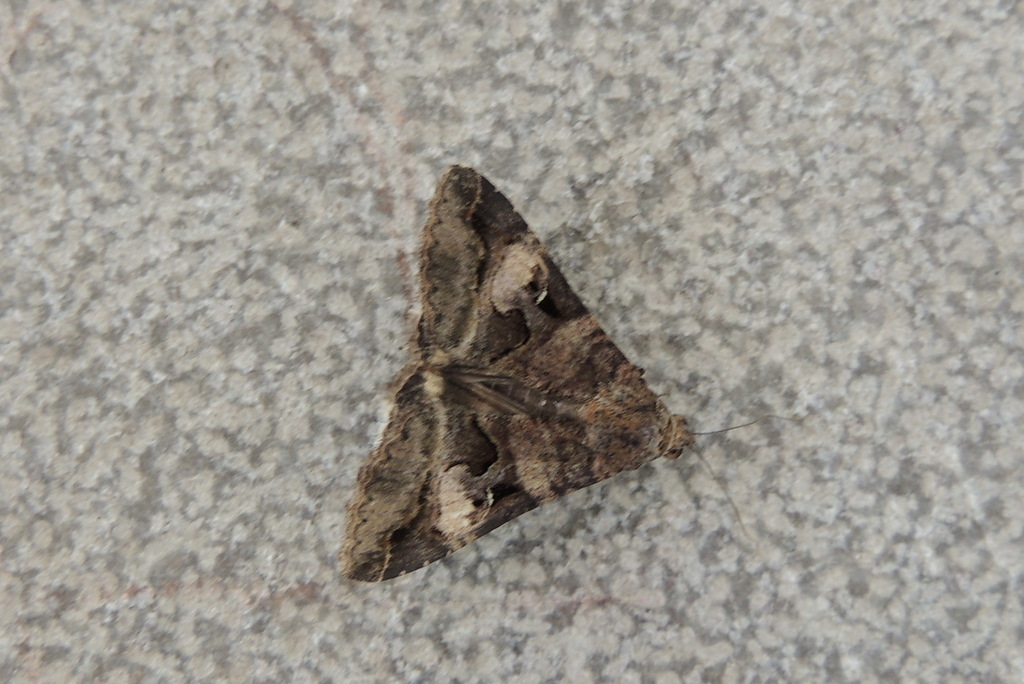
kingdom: Animalia
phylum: Arthropoda
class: Insecta
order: Lepidoptera
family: Erebidae
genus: Melipotis
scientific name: Melipotis perpendicularis
